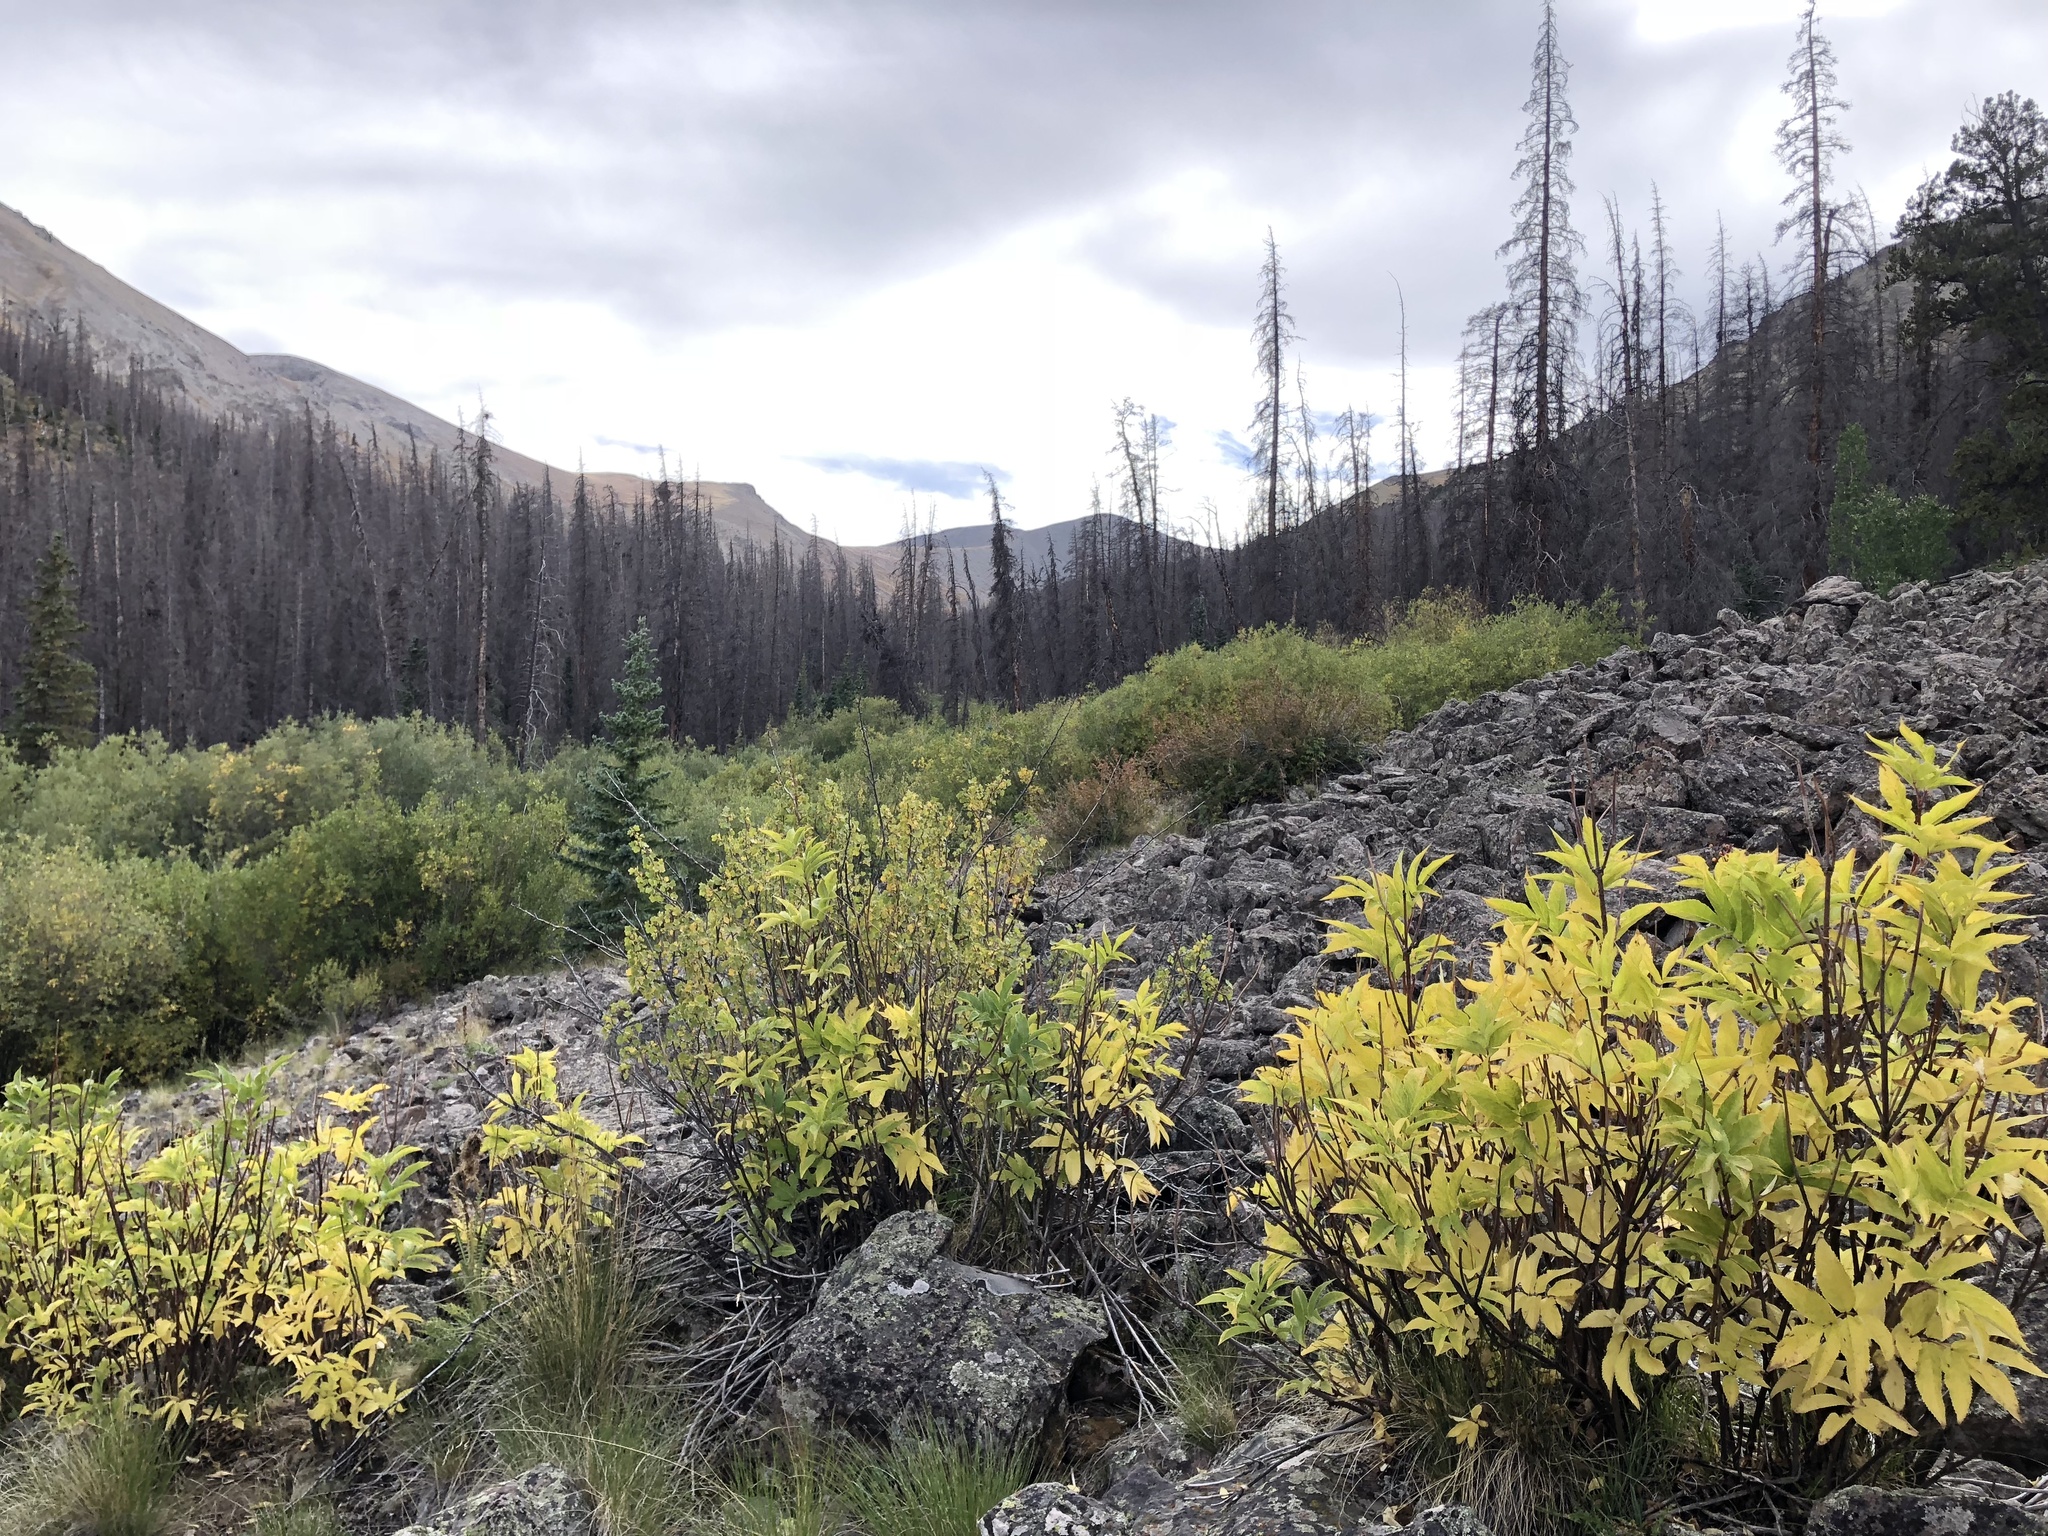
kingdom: Plantae
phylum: Tracheophyta
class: Magnoliopsida
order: Dipsacales
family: Viburnaceae
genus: Sambucus
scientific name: Sambucus racemosa
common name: Red-berried elder
